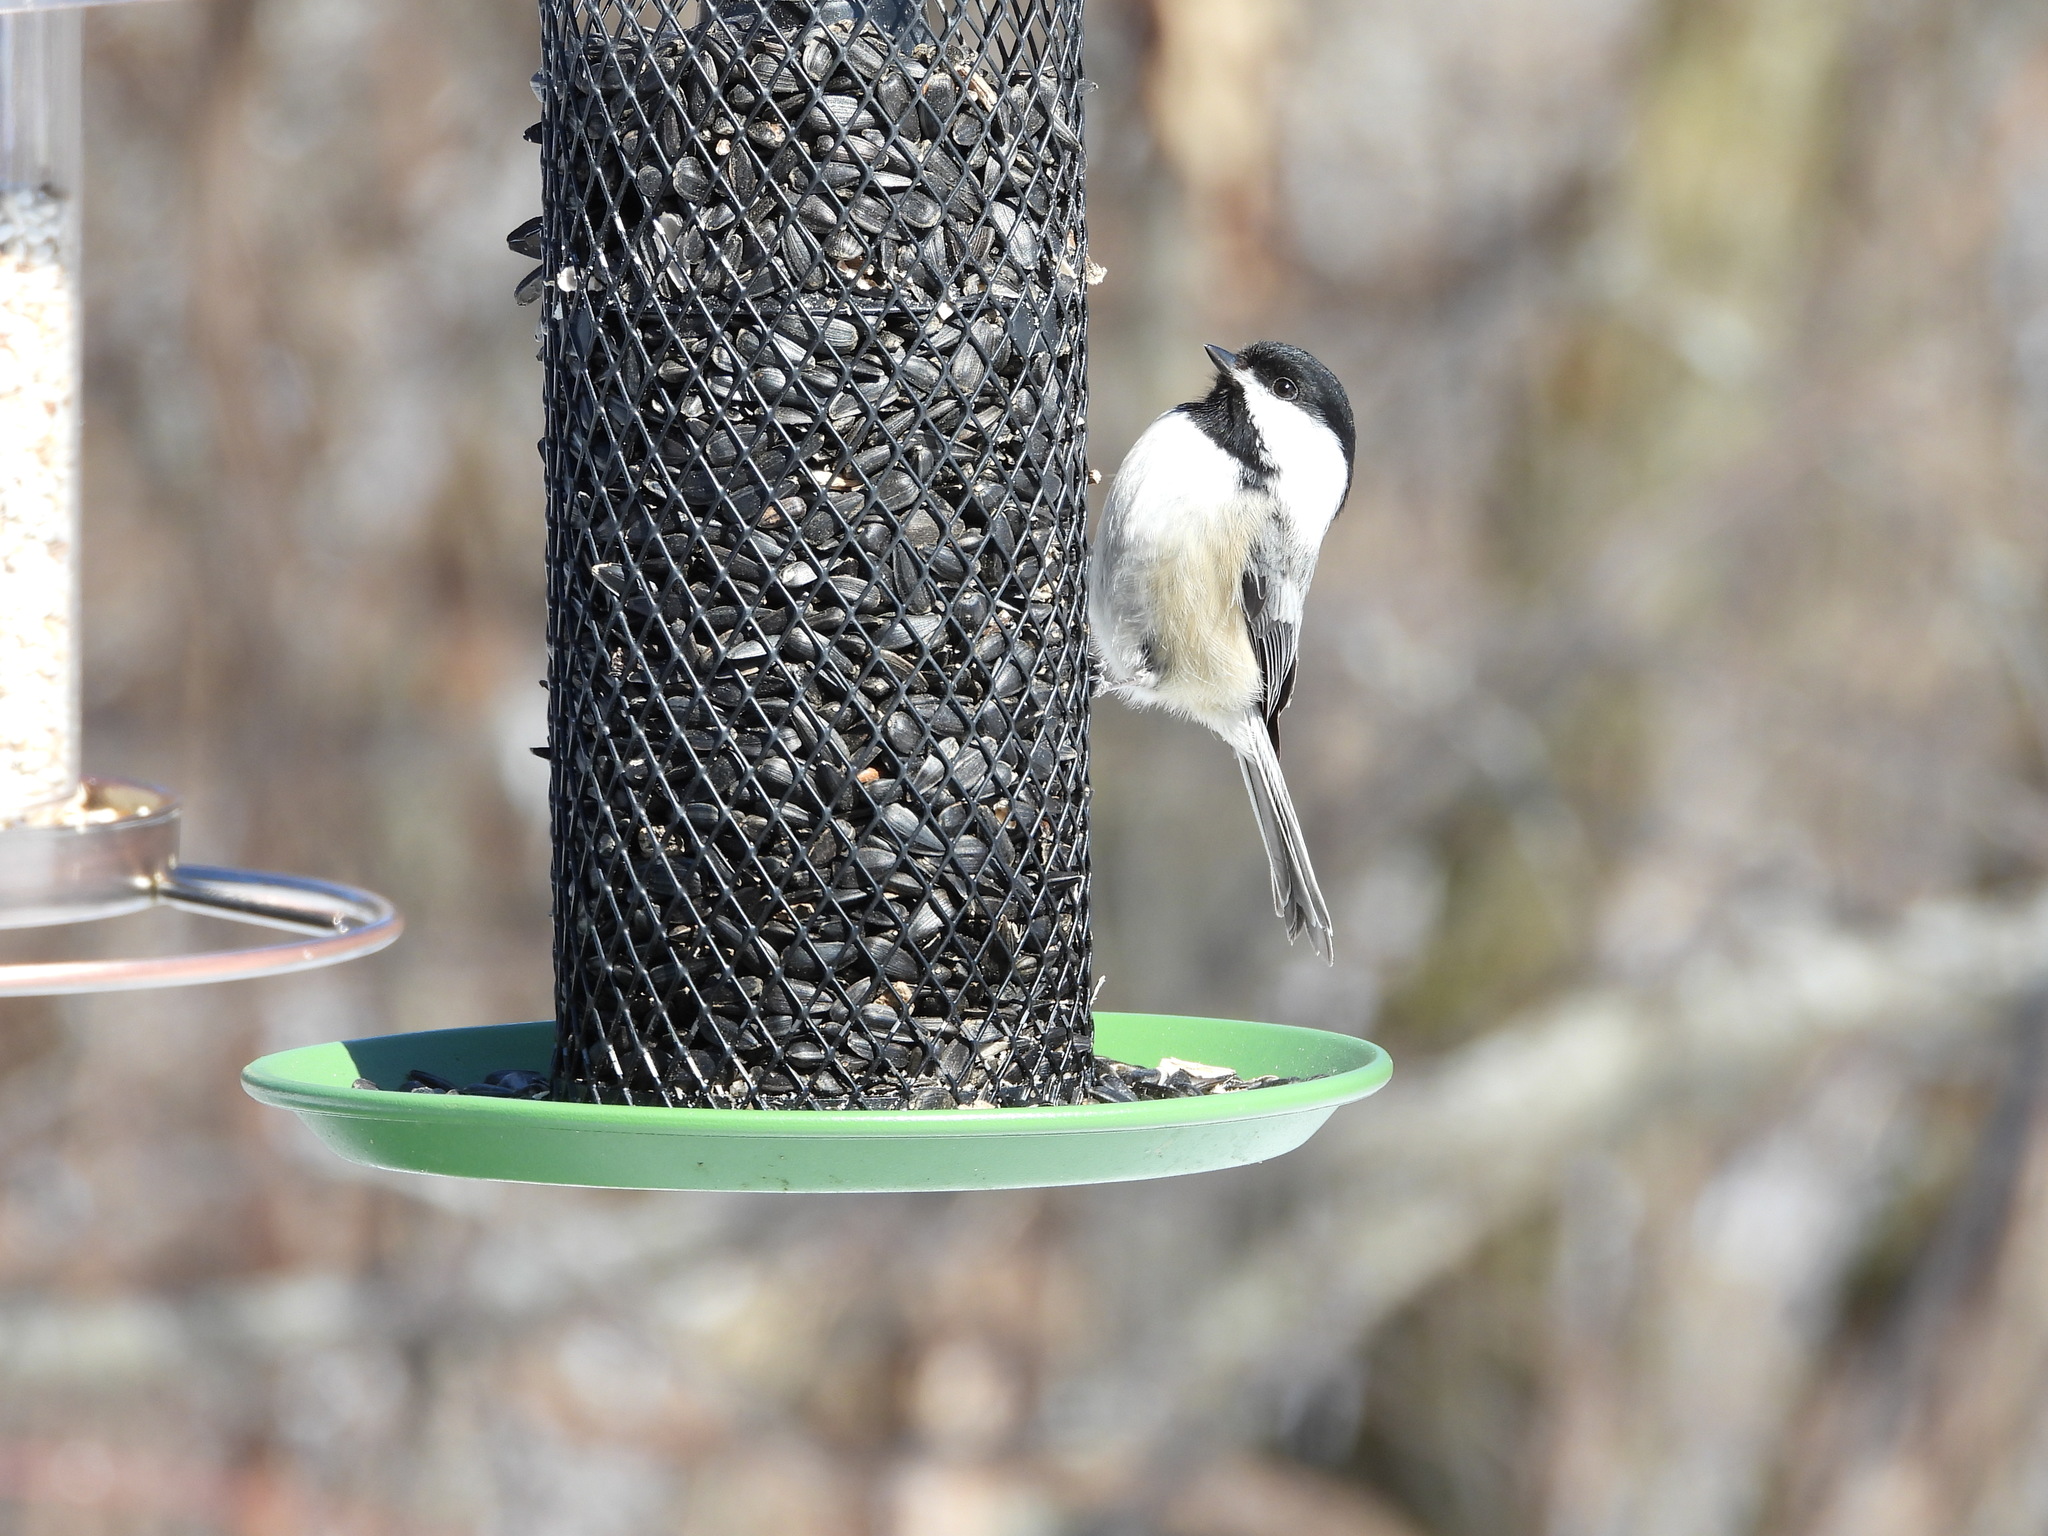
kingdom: Animalia
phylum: Chordata
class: Aves
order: Passeriformes
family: Paridae
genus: Poecile
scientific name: Poecile atricapillus
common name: Black-capped chickadee
